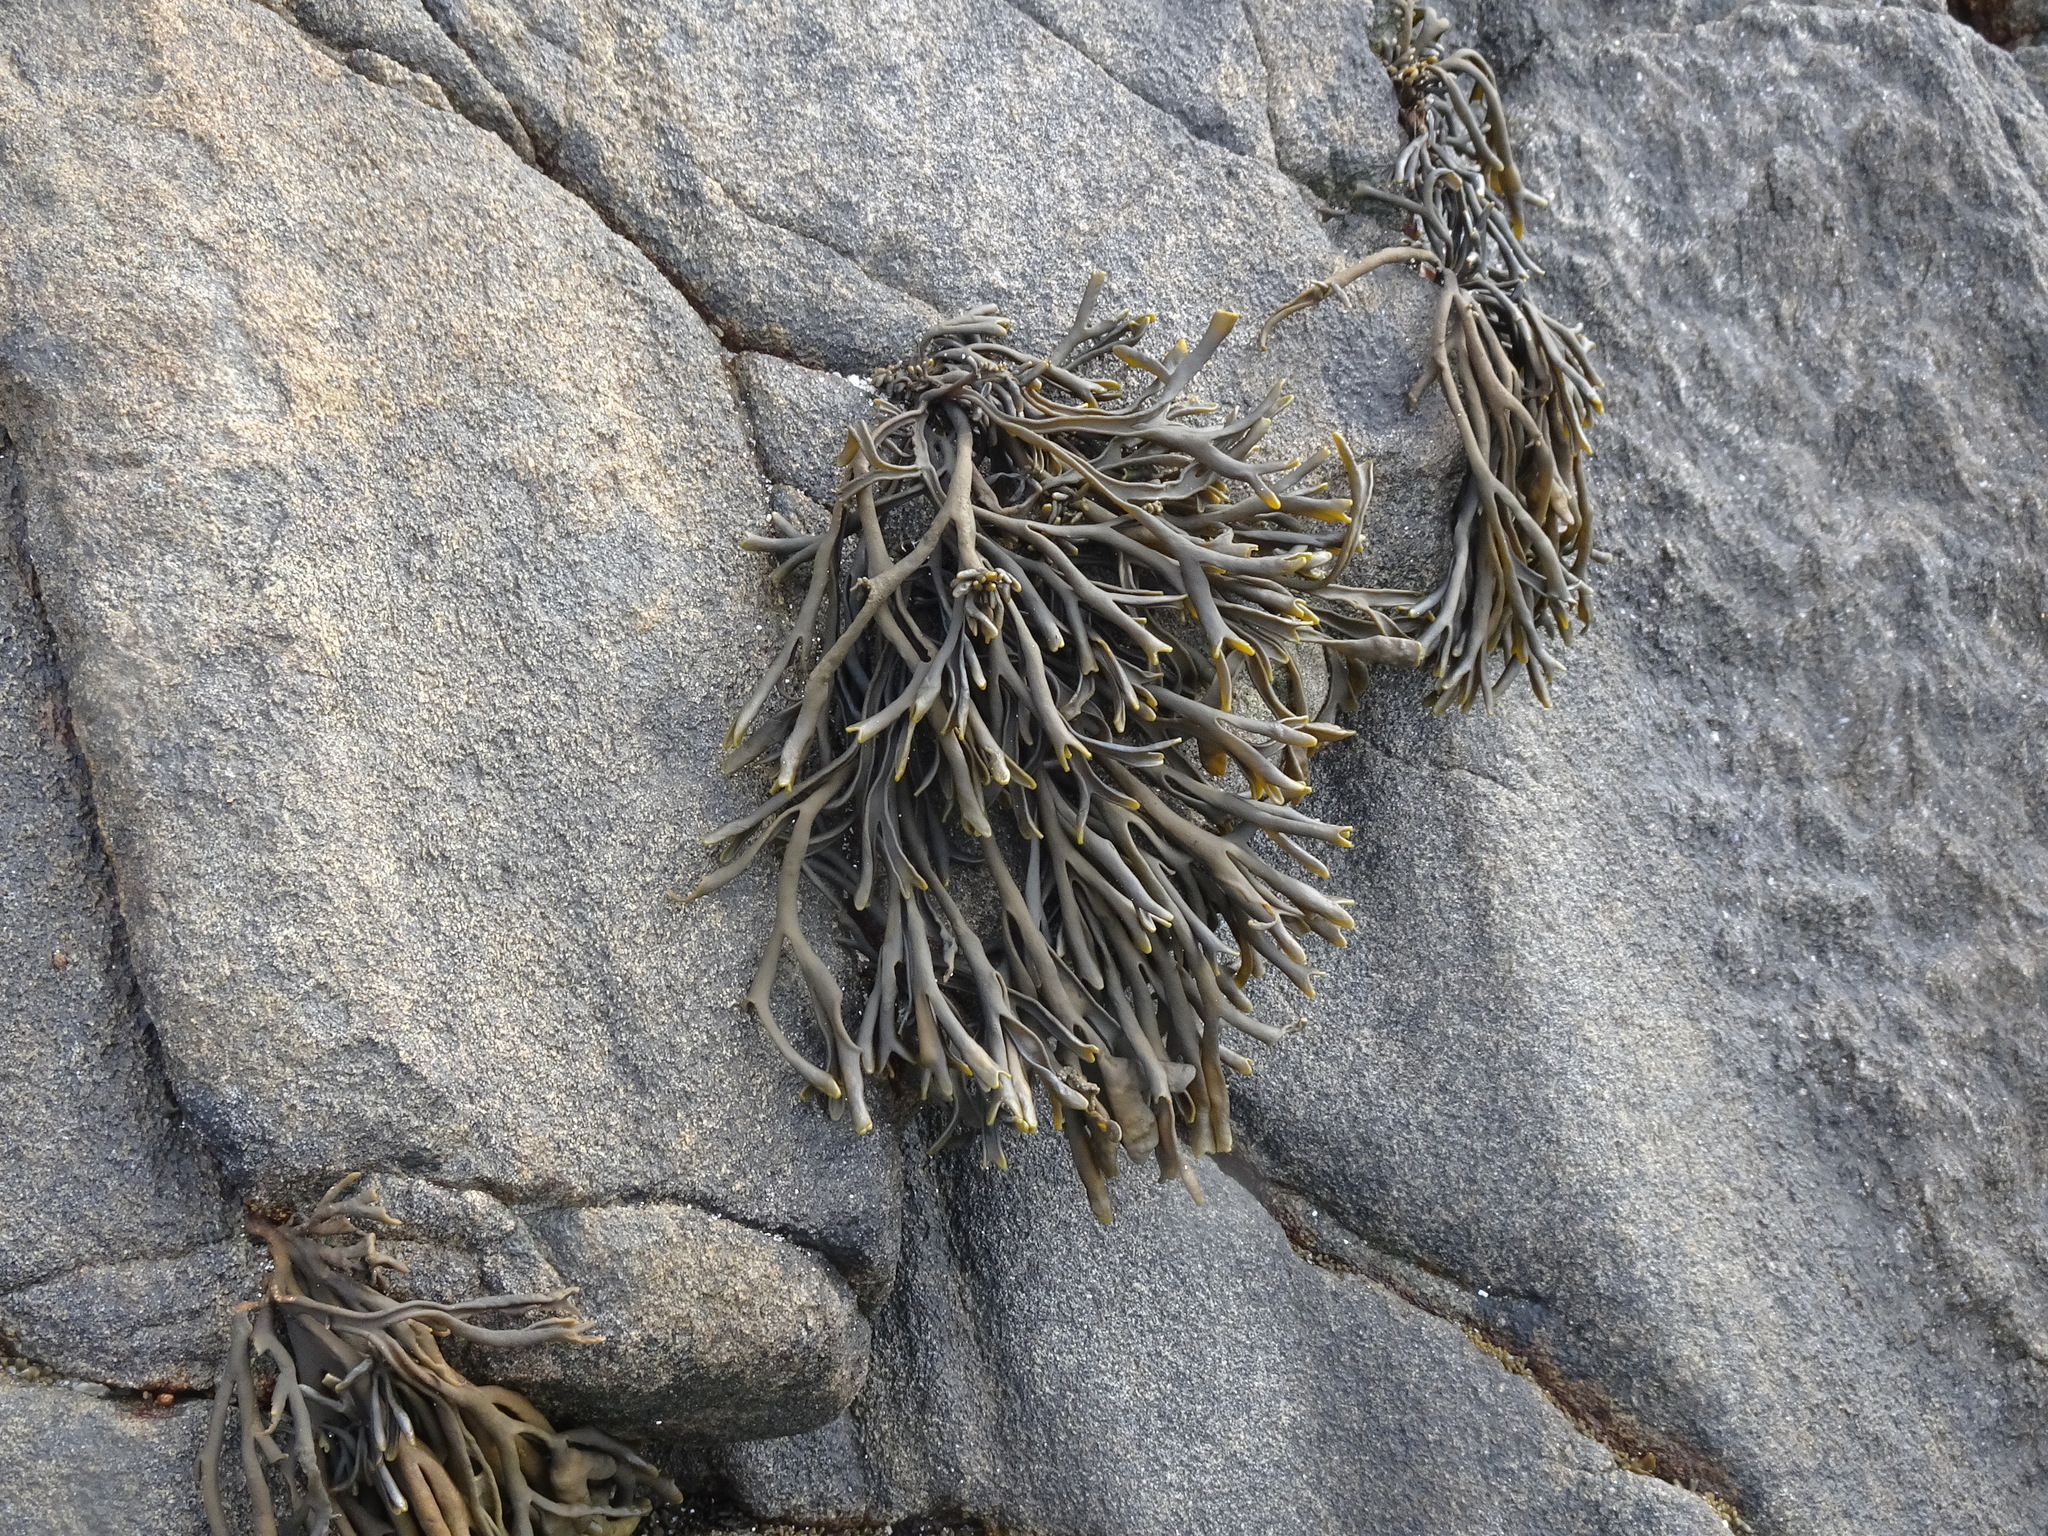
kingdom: Chromista
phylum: Ochrophyta
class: Phaeophyceae
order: Fucales
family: Fucaceae
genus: Pelvetia
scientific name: Pelvetia canaliculata
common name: Channelled wrack
